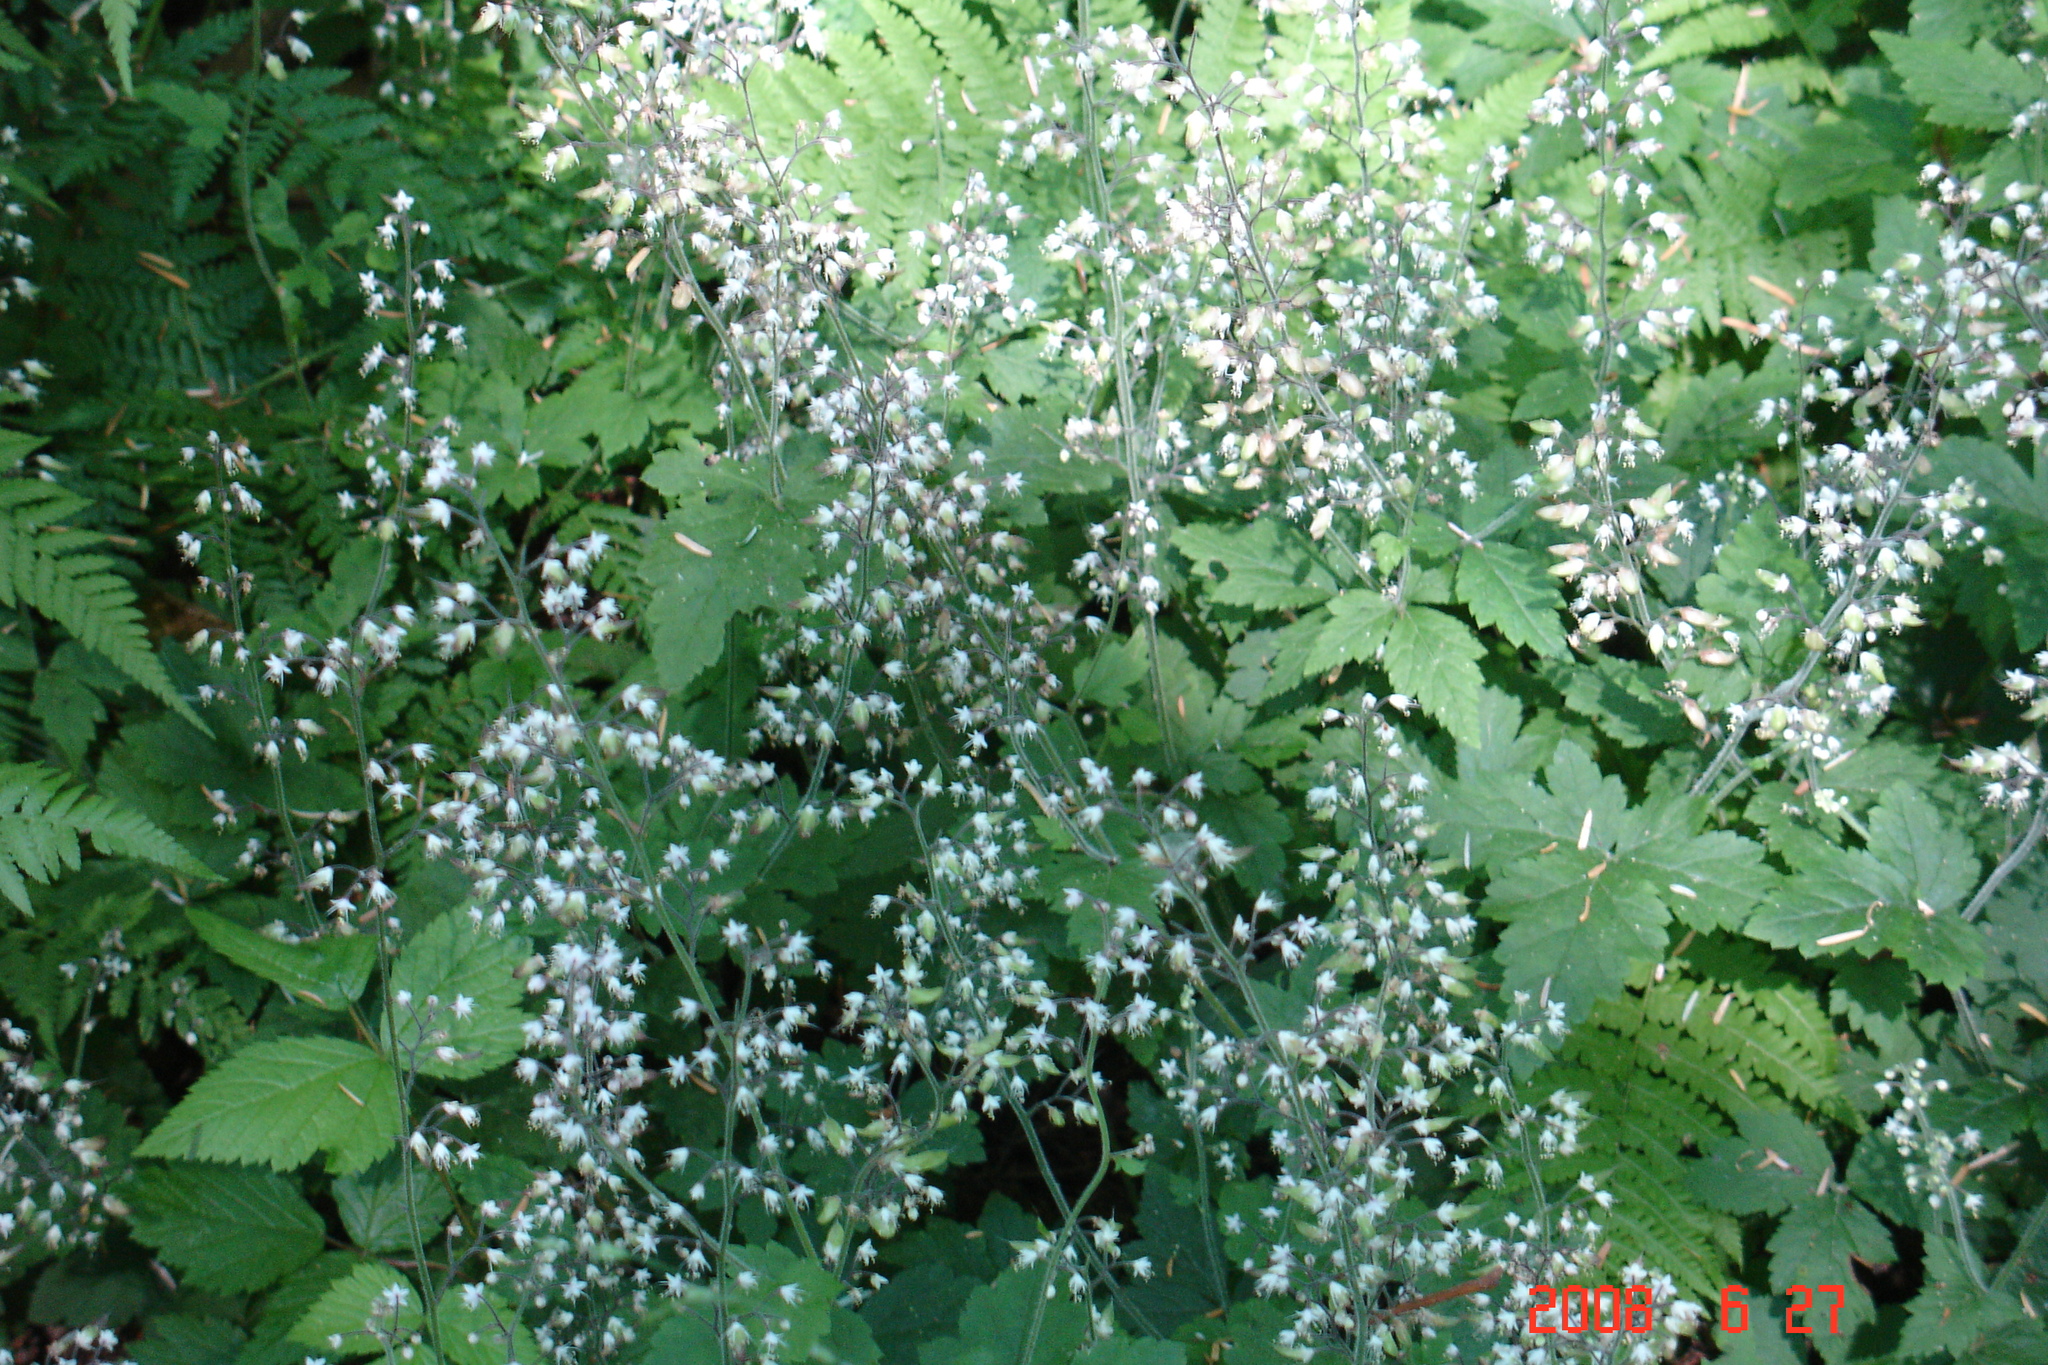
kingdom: Plantae
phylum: Tracheophyta
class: Magnoliopsida
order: Saxifragales
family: Saxifragaceae
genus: Tiarella
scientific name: Tiarella trifoliata
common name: Sugar-scoop
